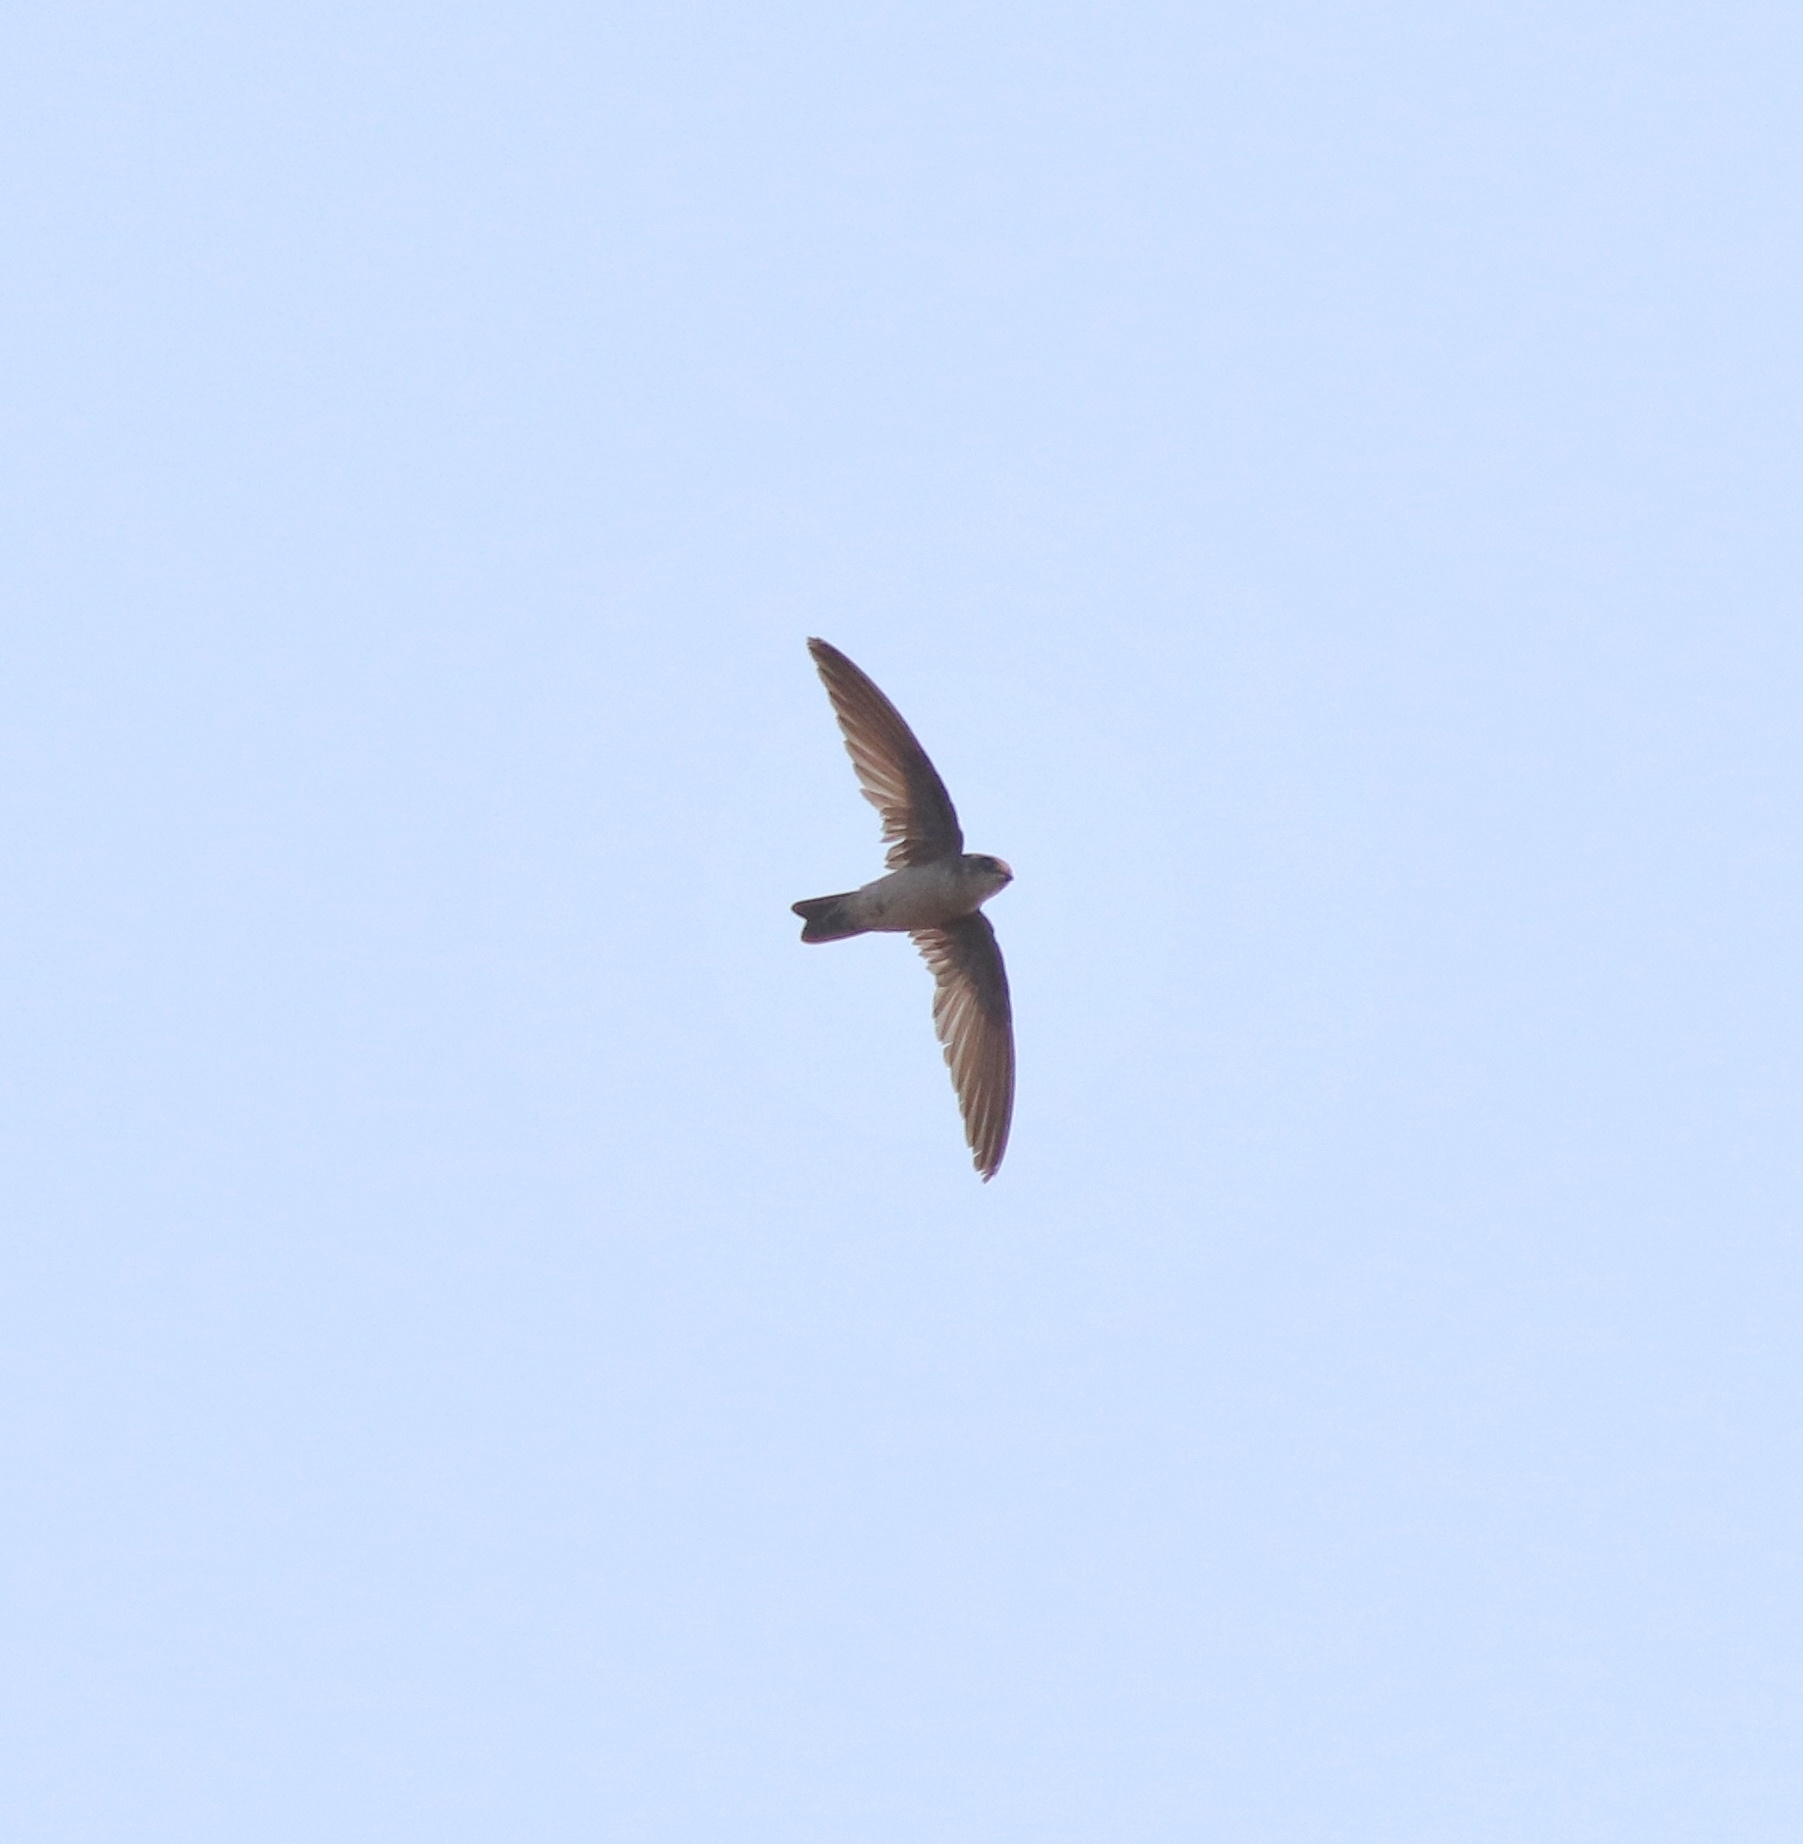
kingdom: Animalia
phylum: Chordata
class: Aves
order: Apodiformes
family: Apodidae
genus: Aerodramus
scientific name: Aerodramus unicolor
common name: Indian swiftlet
